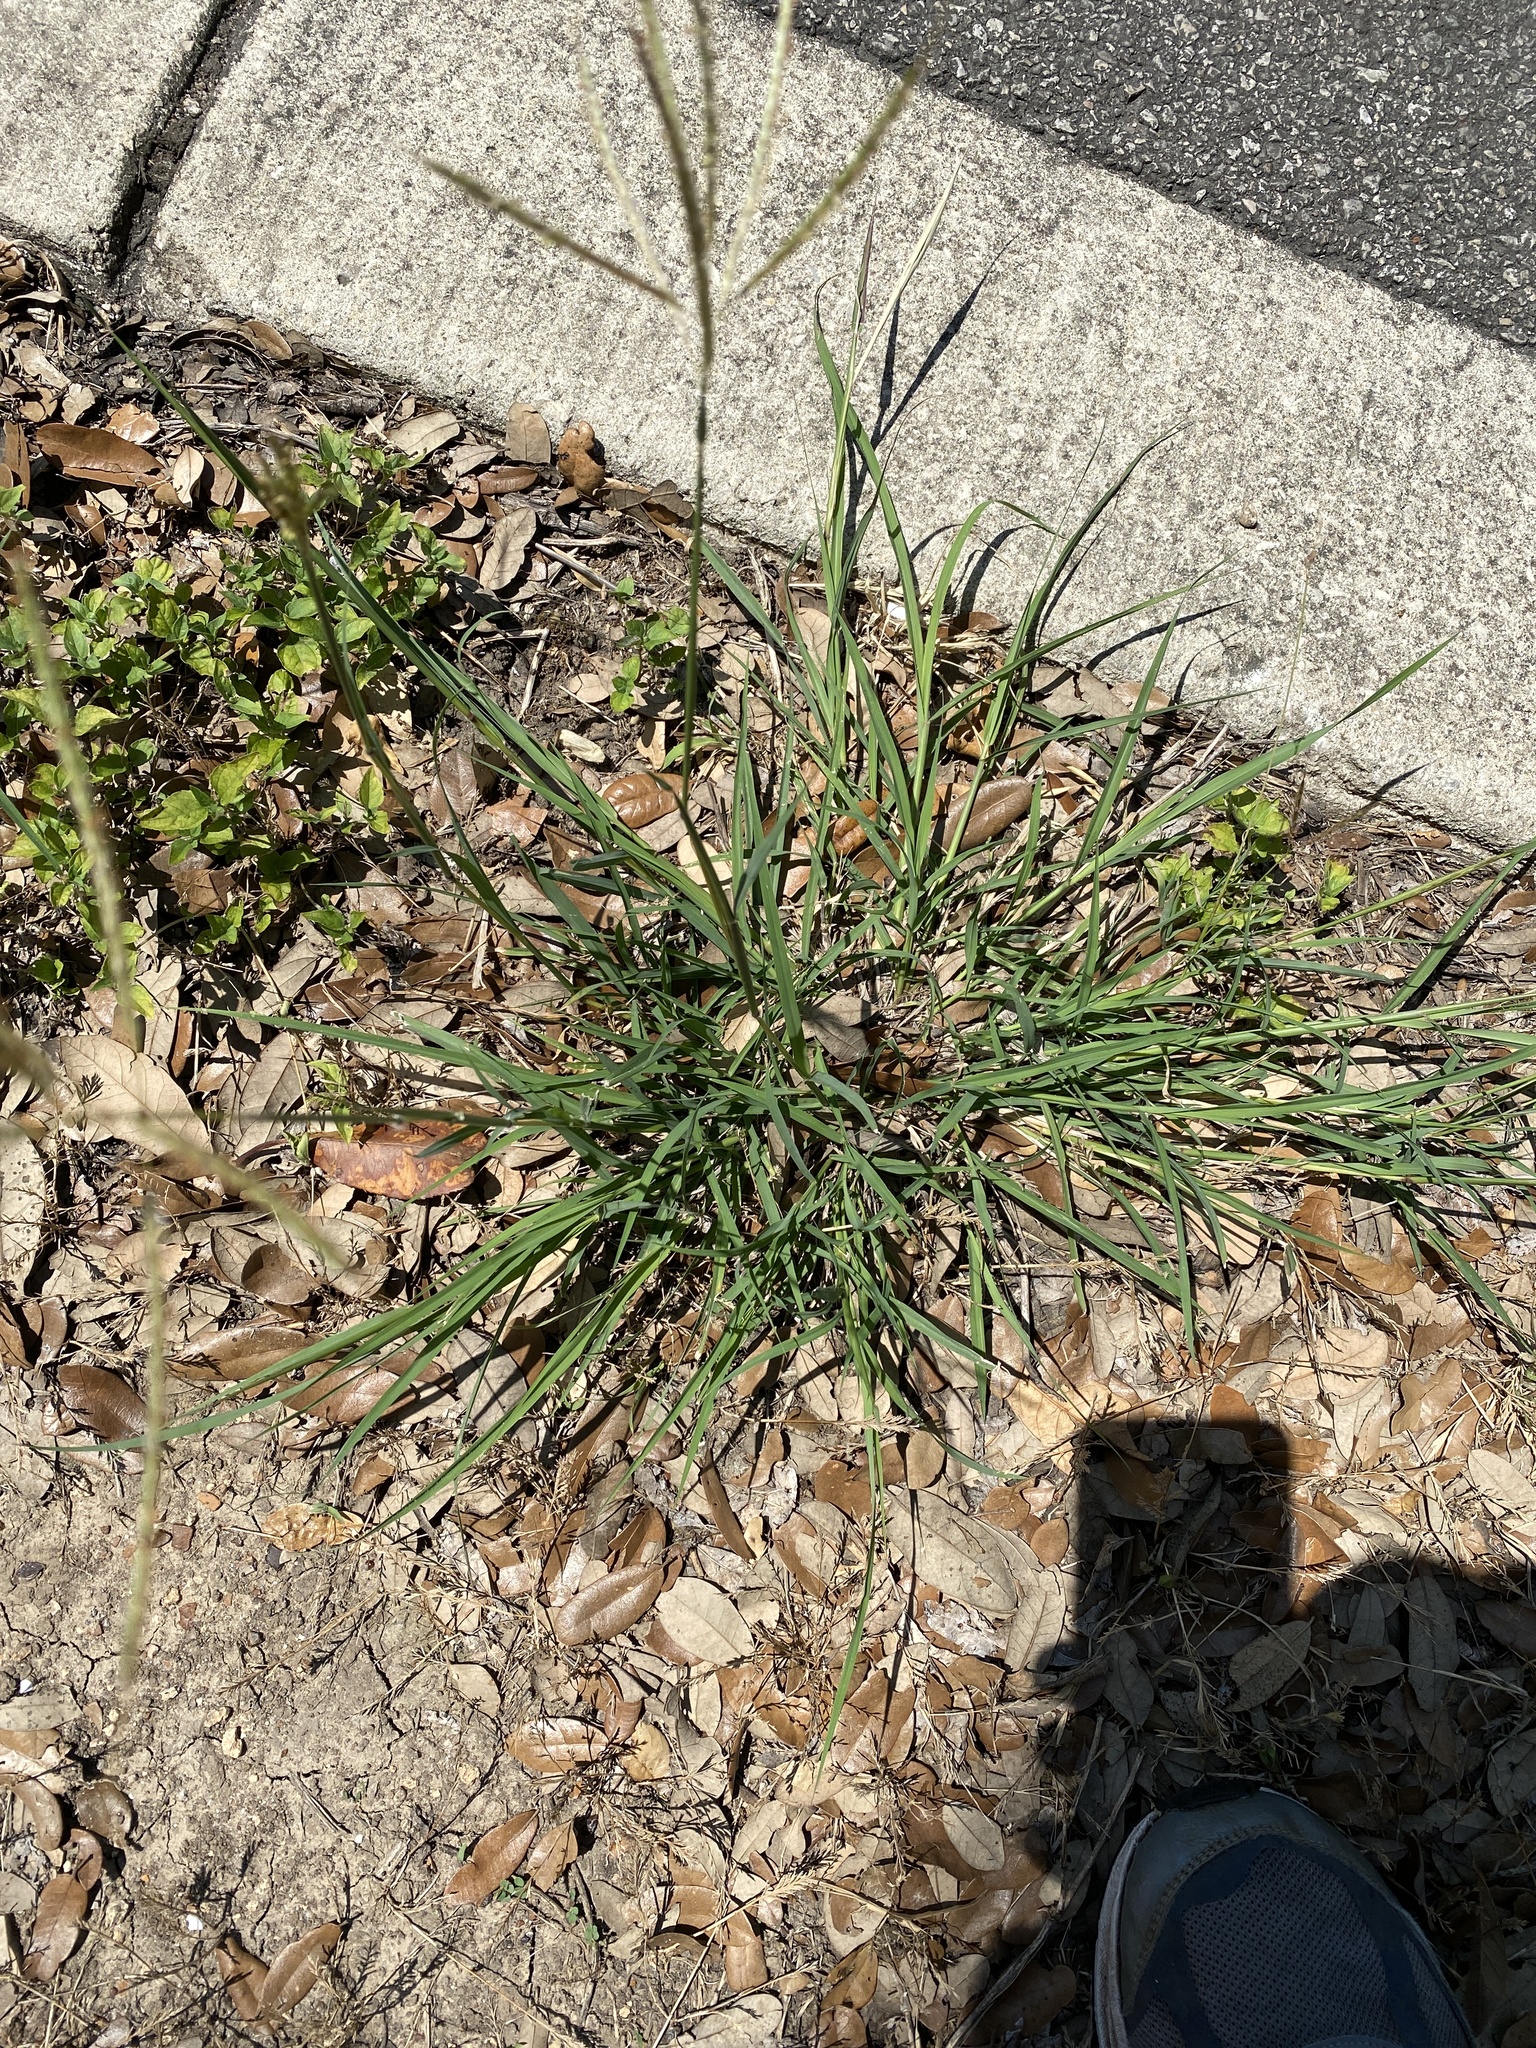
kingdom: Plantae
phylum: Tracheophyta
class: Liliopsida
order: Poales
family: Poaceae
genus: Bothriochloa
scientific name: Bothriochloa ischaemum
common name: Yellow bluestem
